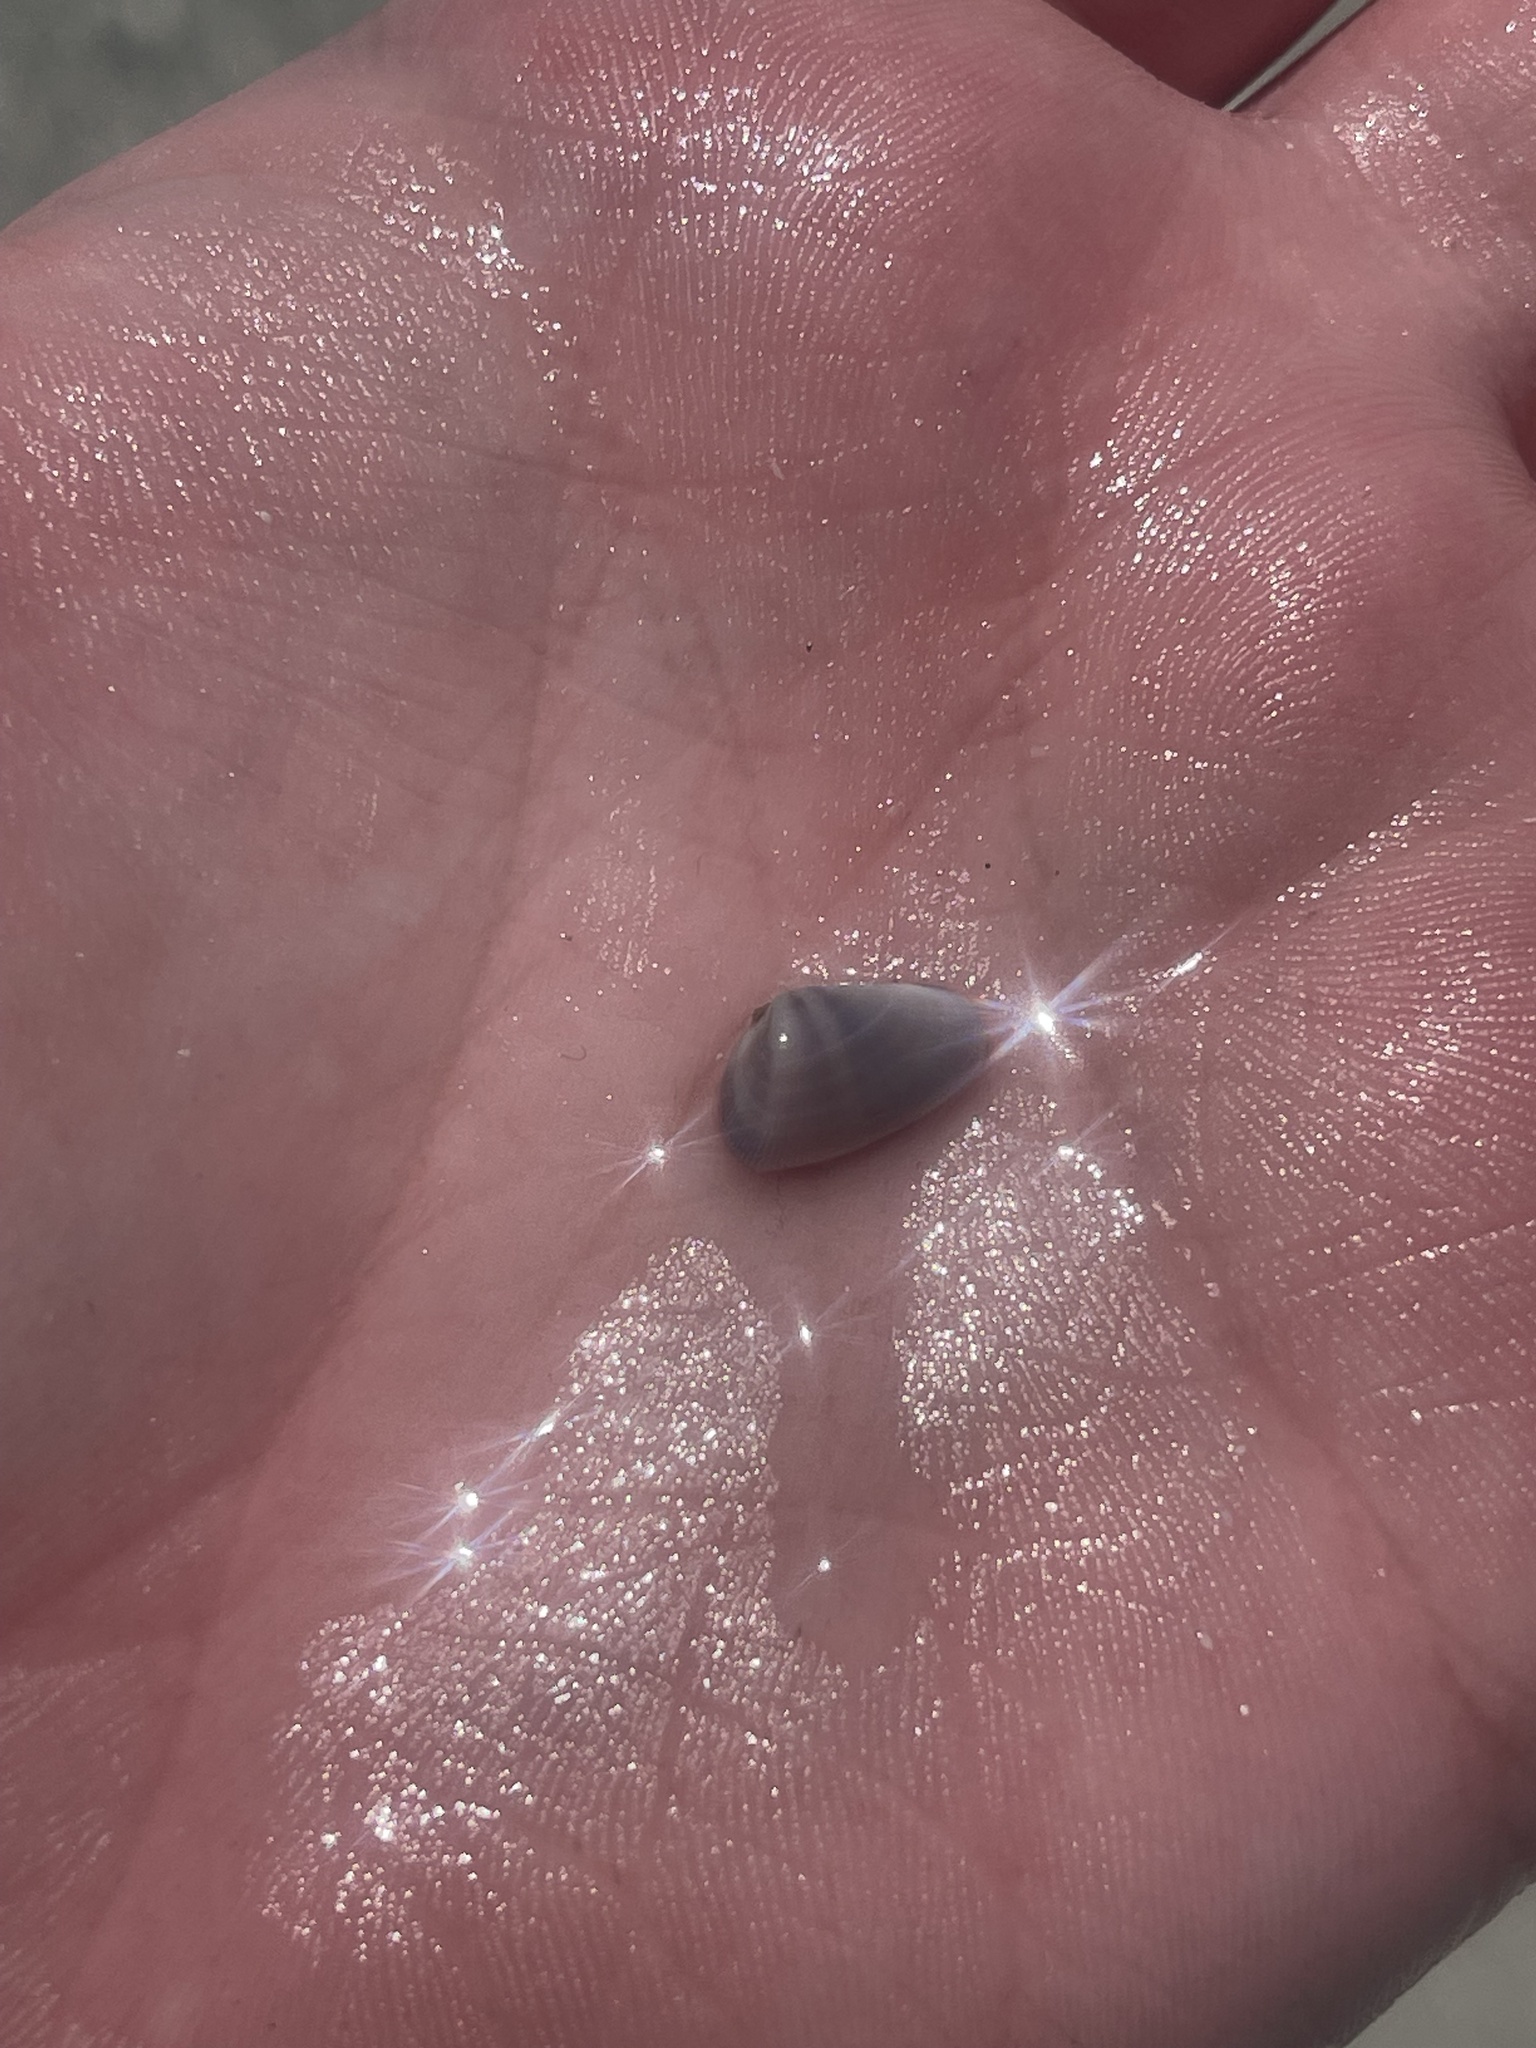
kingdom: Animalia
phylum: Mollusca
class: Bivalvia
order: Cardiida
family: Donacidae
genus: Donax
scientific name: Donax variabilis
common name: Butterfly shell
